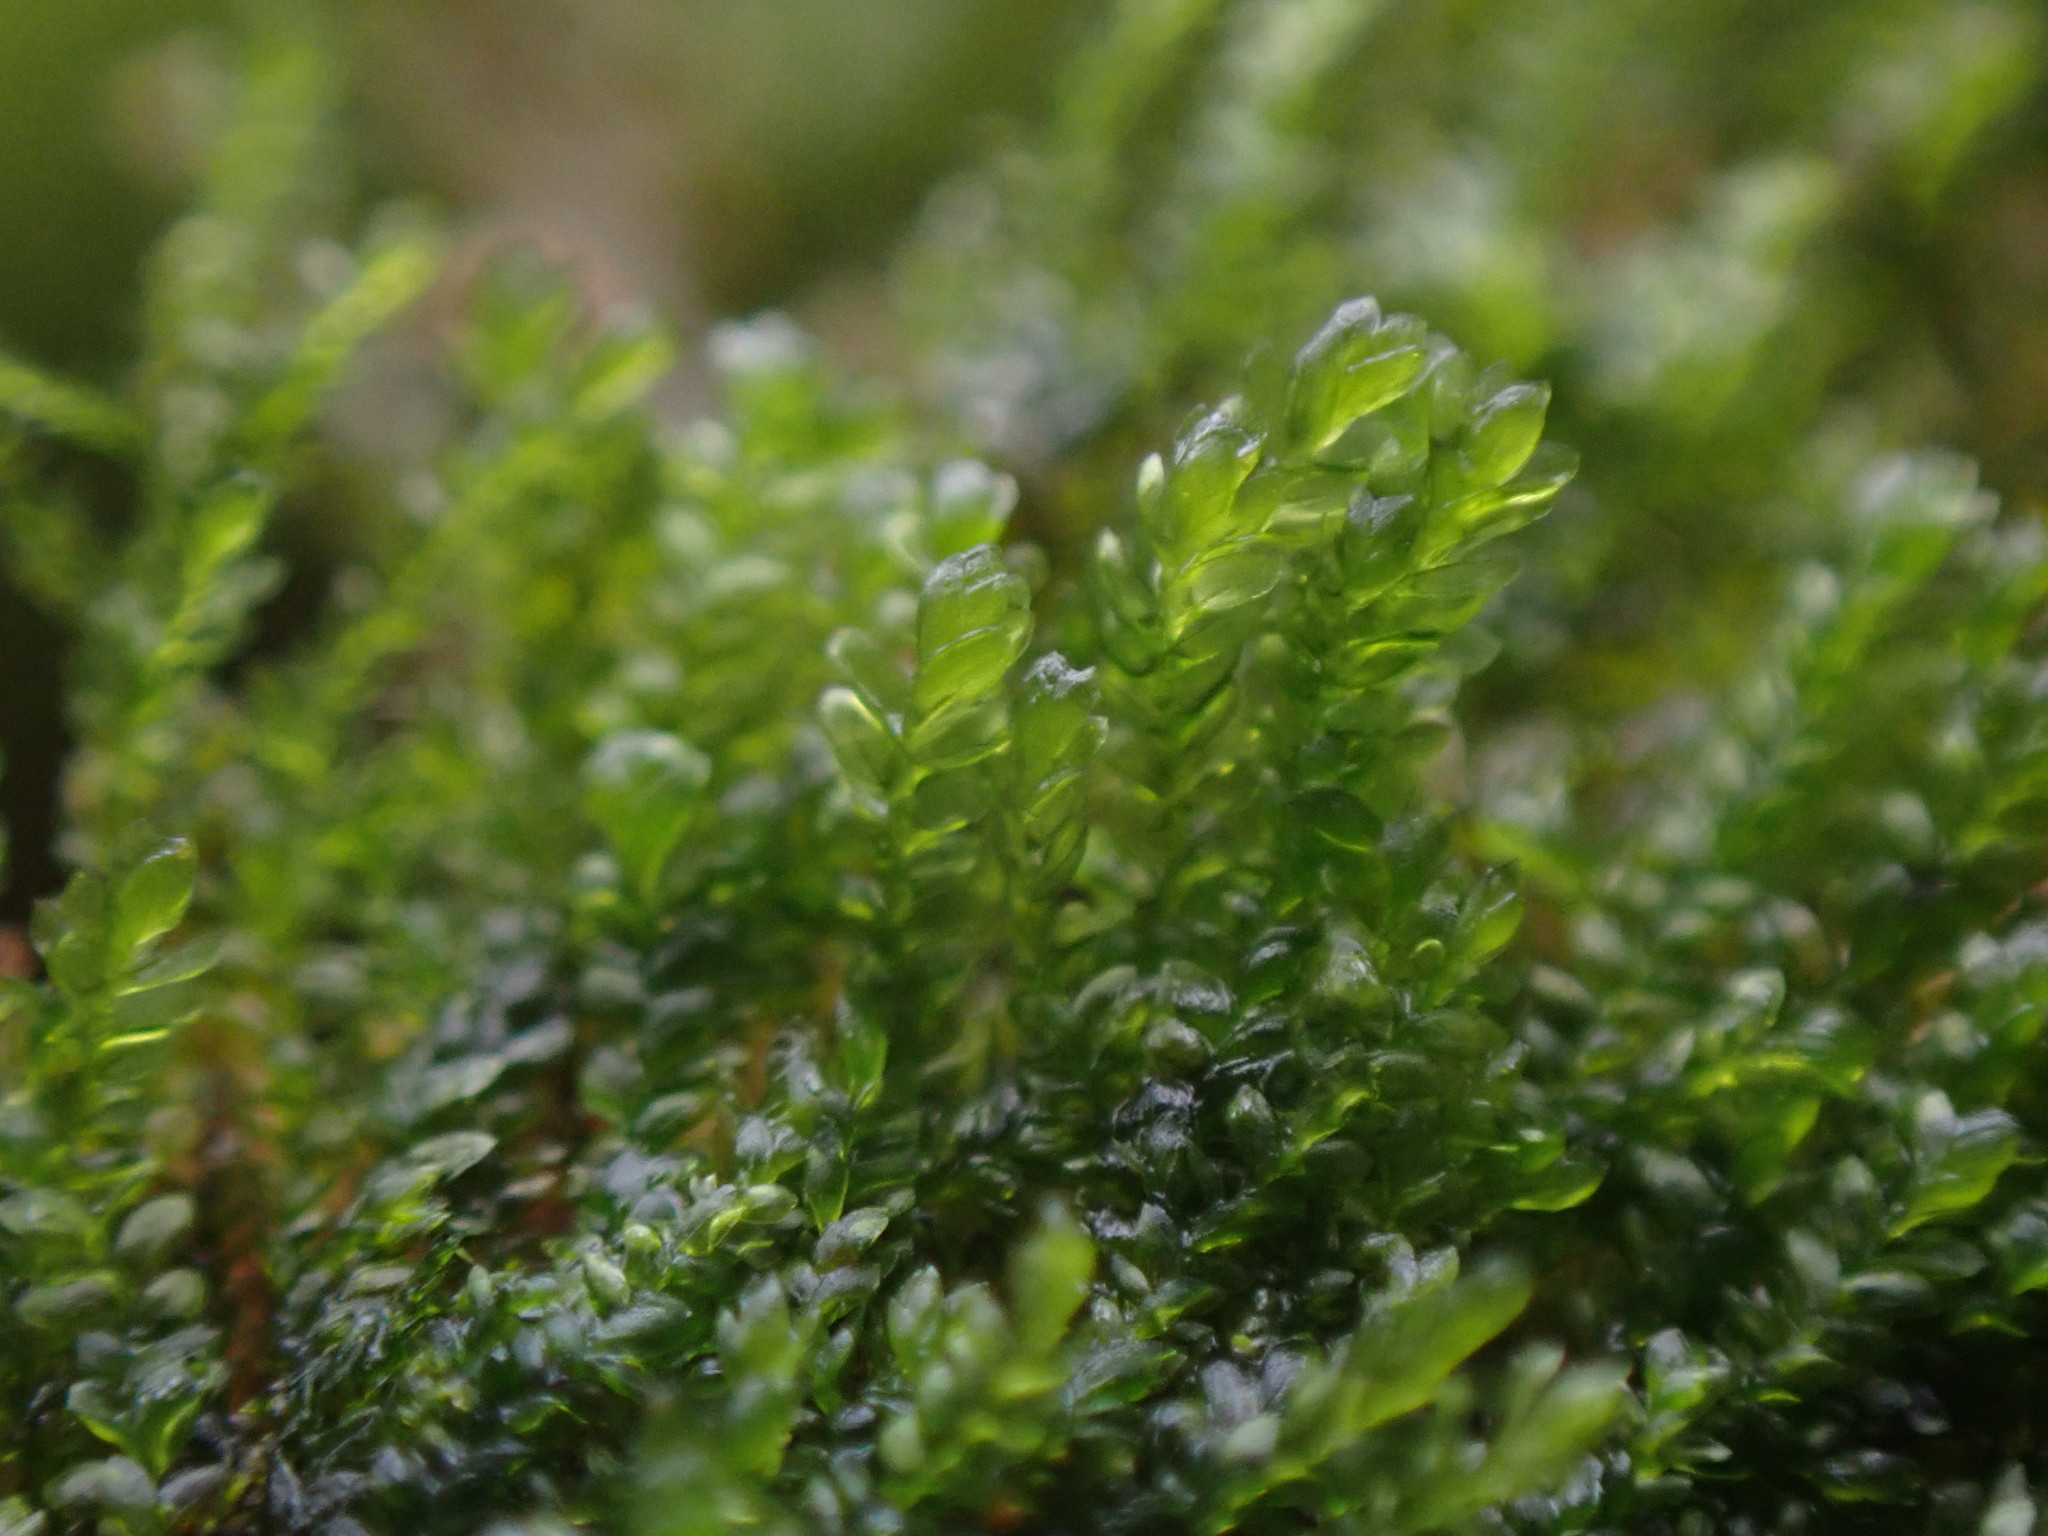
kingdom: Plantae
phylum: Bryophyta
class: Bryopsida
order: Hypnales
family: Lembophyllaceae
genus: Bryolawtonia
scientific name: Bryolawtonia vancouveriensis
